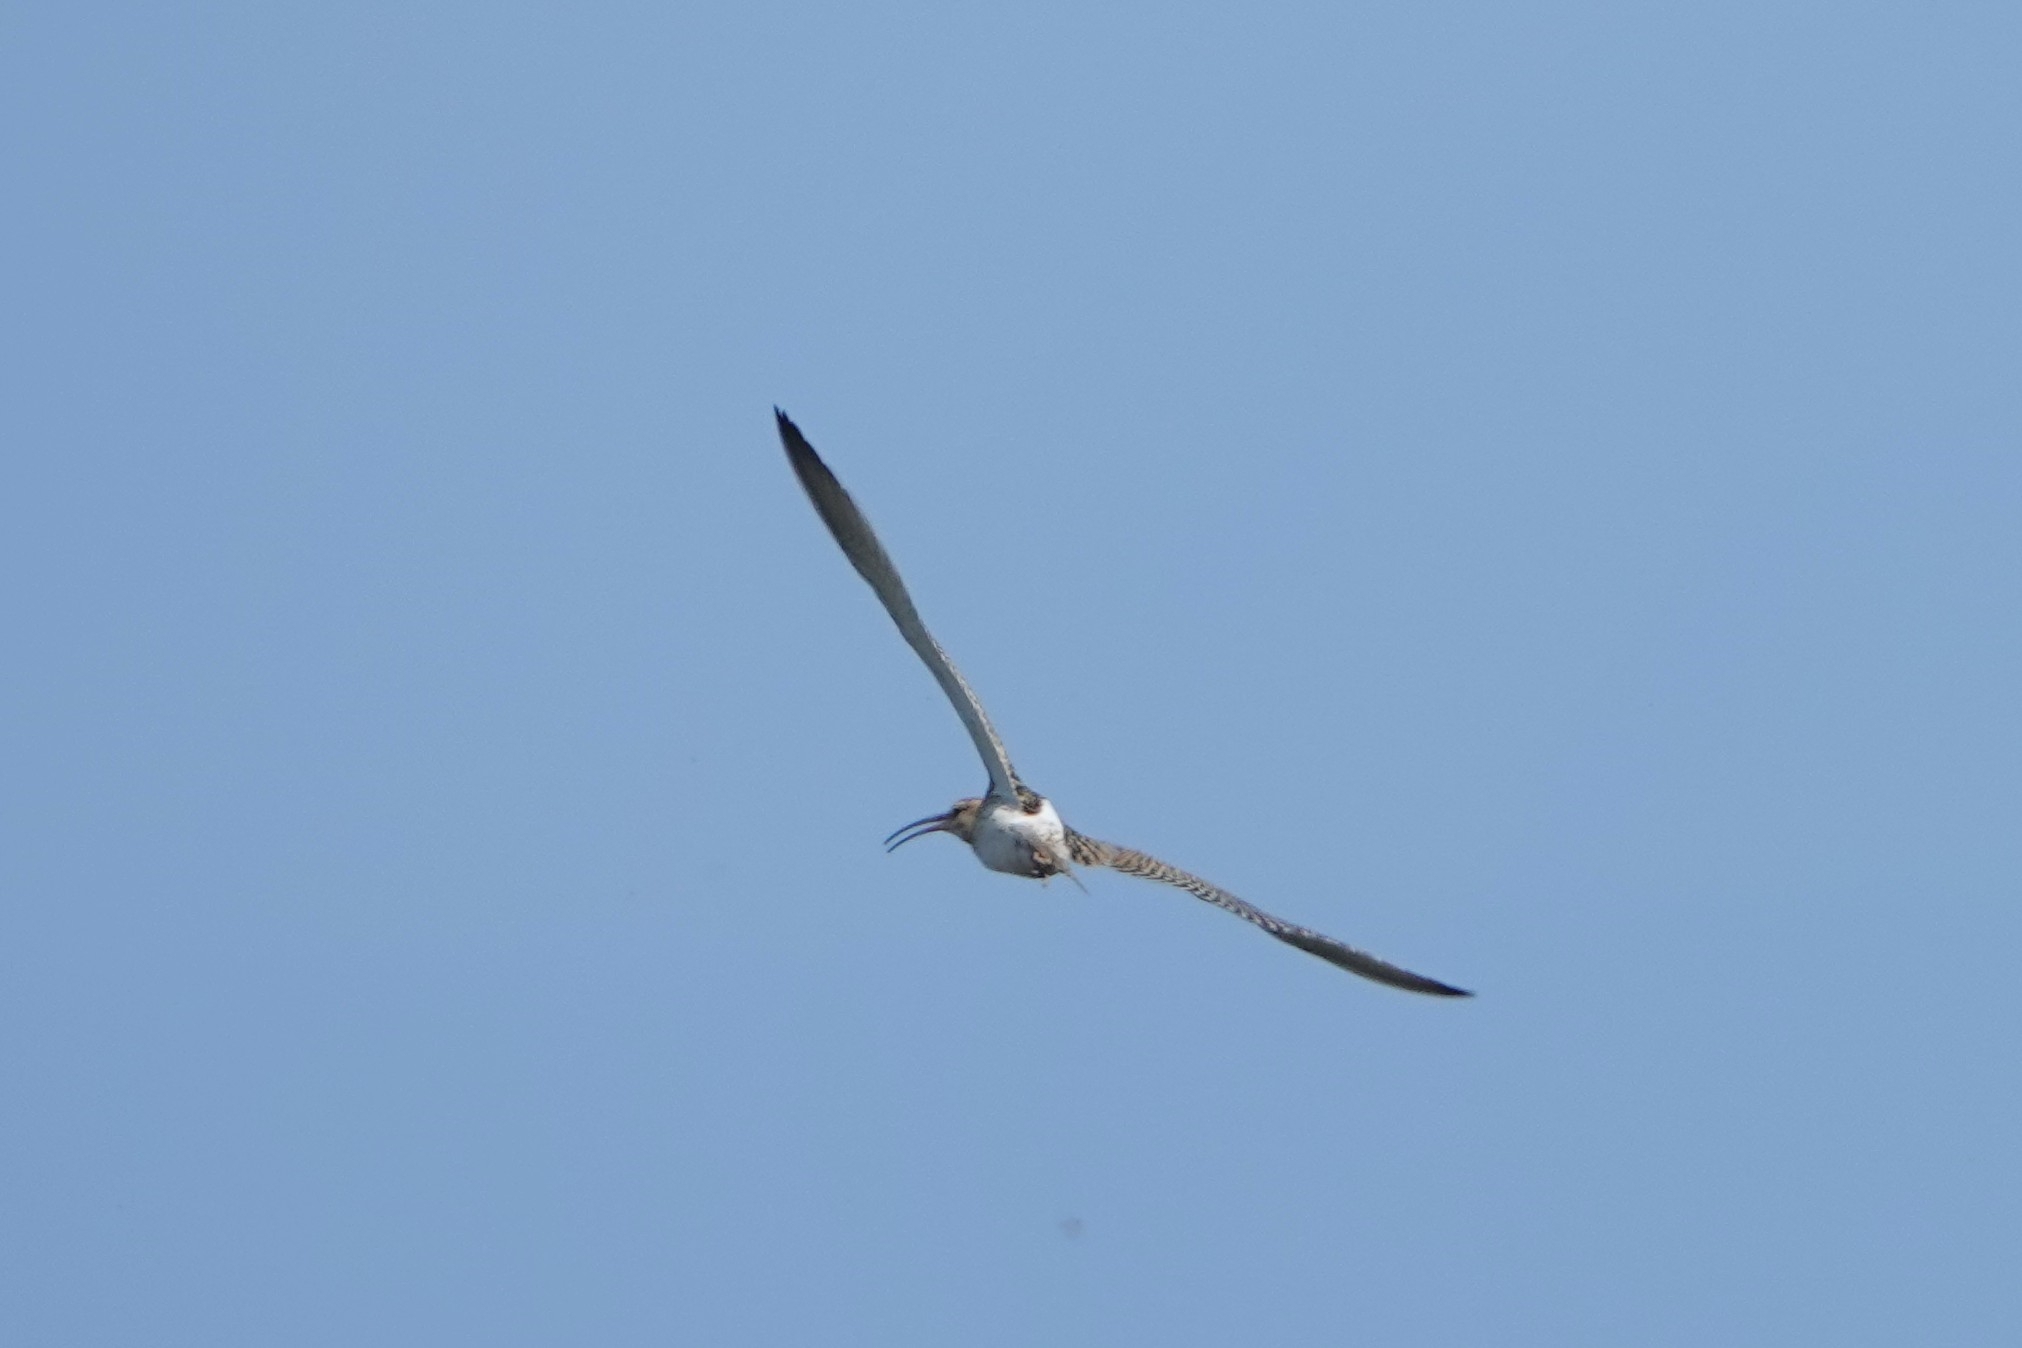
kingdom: Animalia
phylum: Chordata
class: Aves
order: Charadriiformes
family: Scolopacidae
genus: Numenius
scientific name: Numenius arquata
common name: Eurasian curlew
